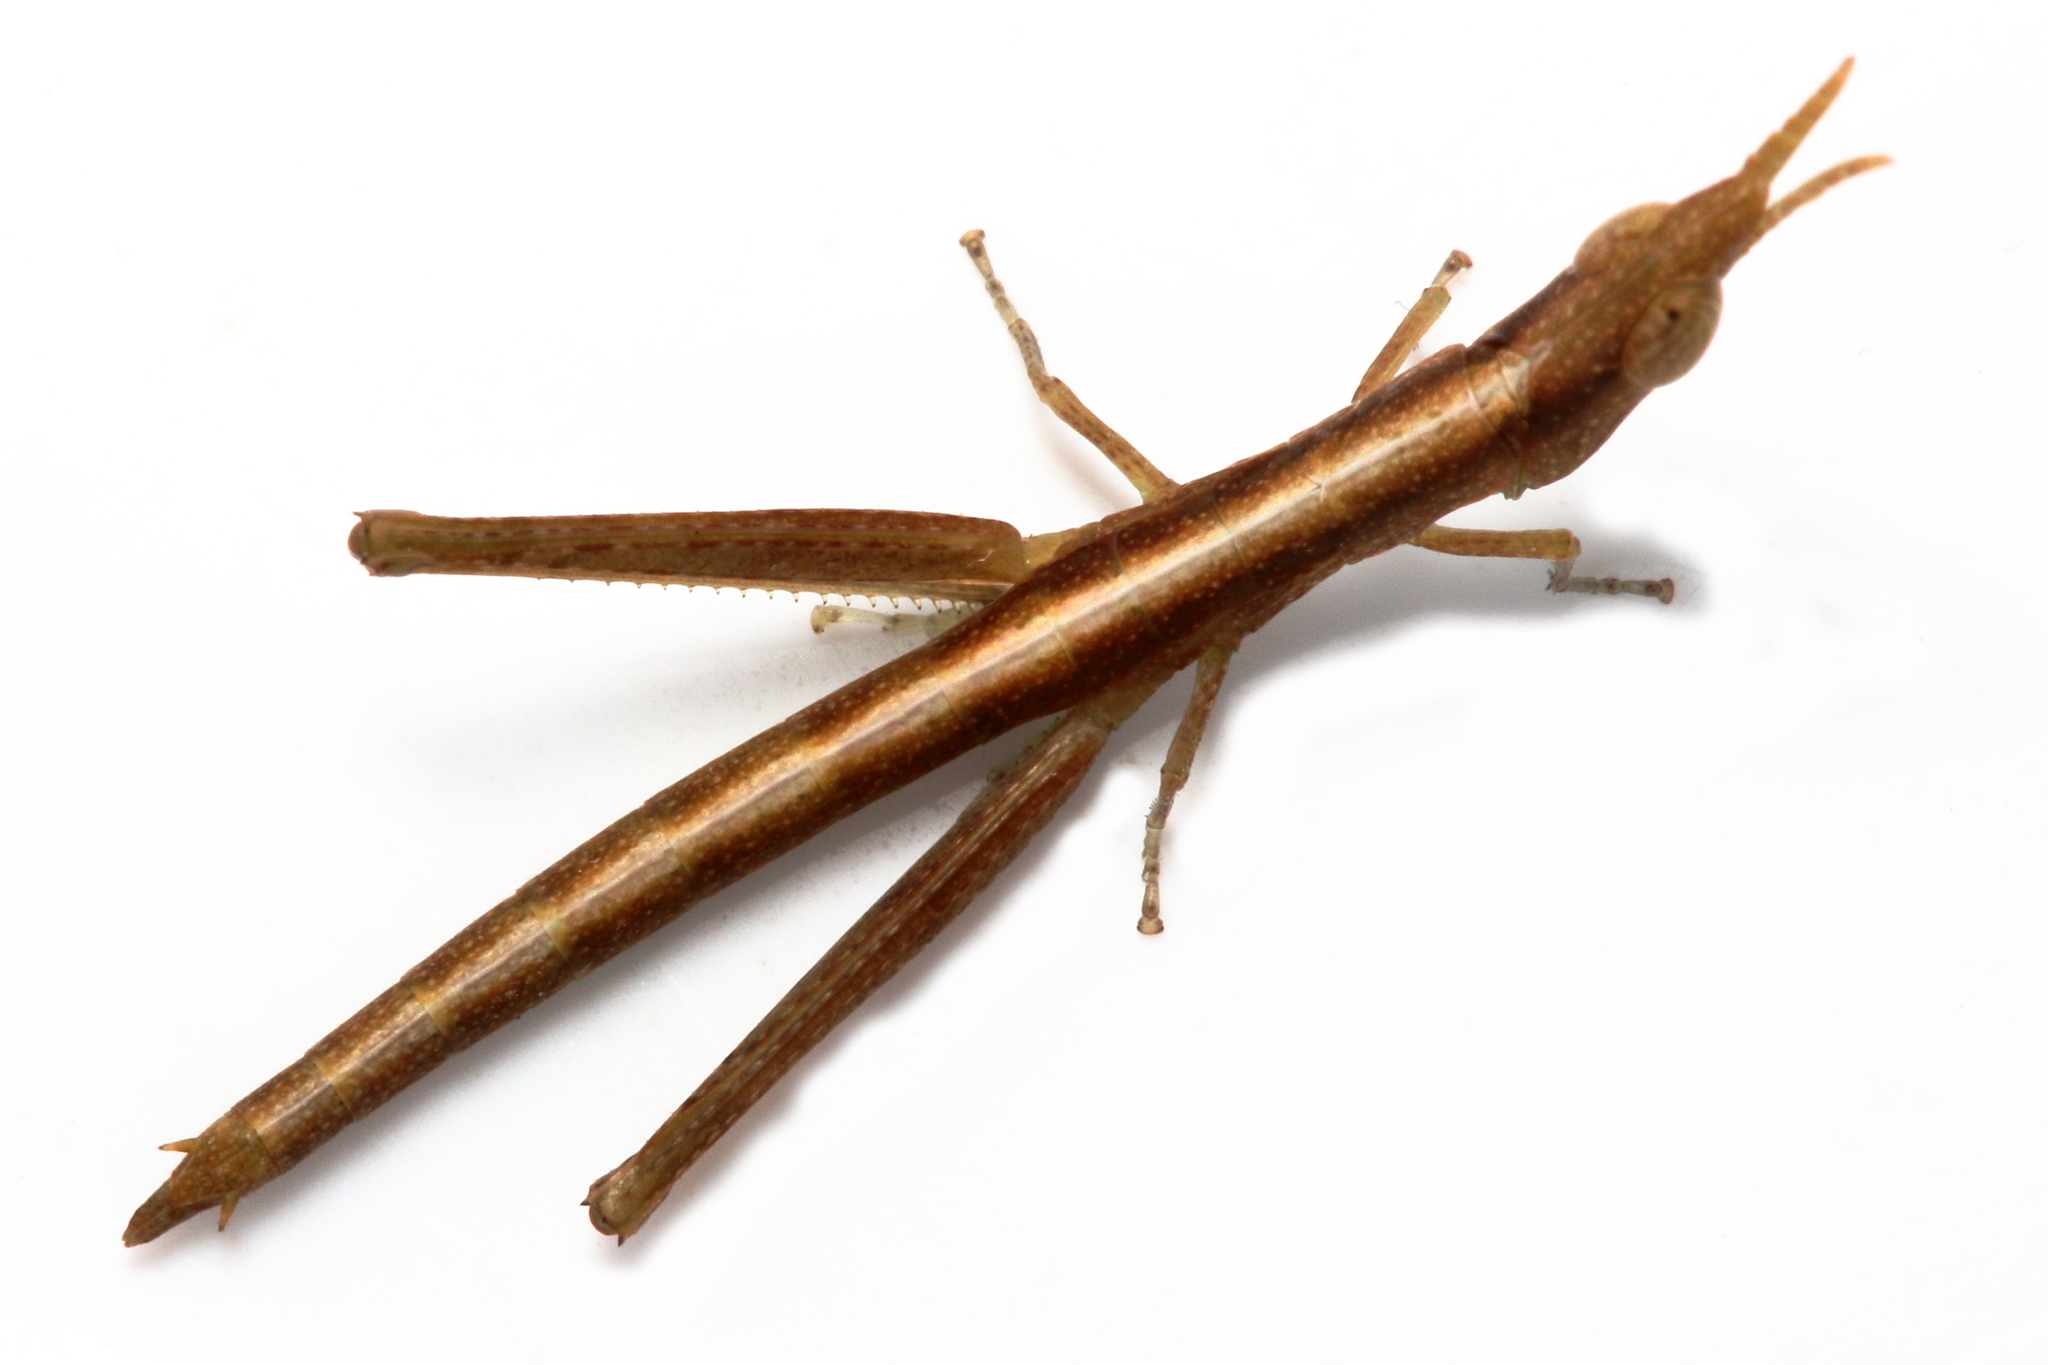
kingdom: Animalia
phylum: Arthropoda
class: Insecta
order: Orthoptera
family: Morabidae
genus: Amangu
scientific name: Amangu pugio
